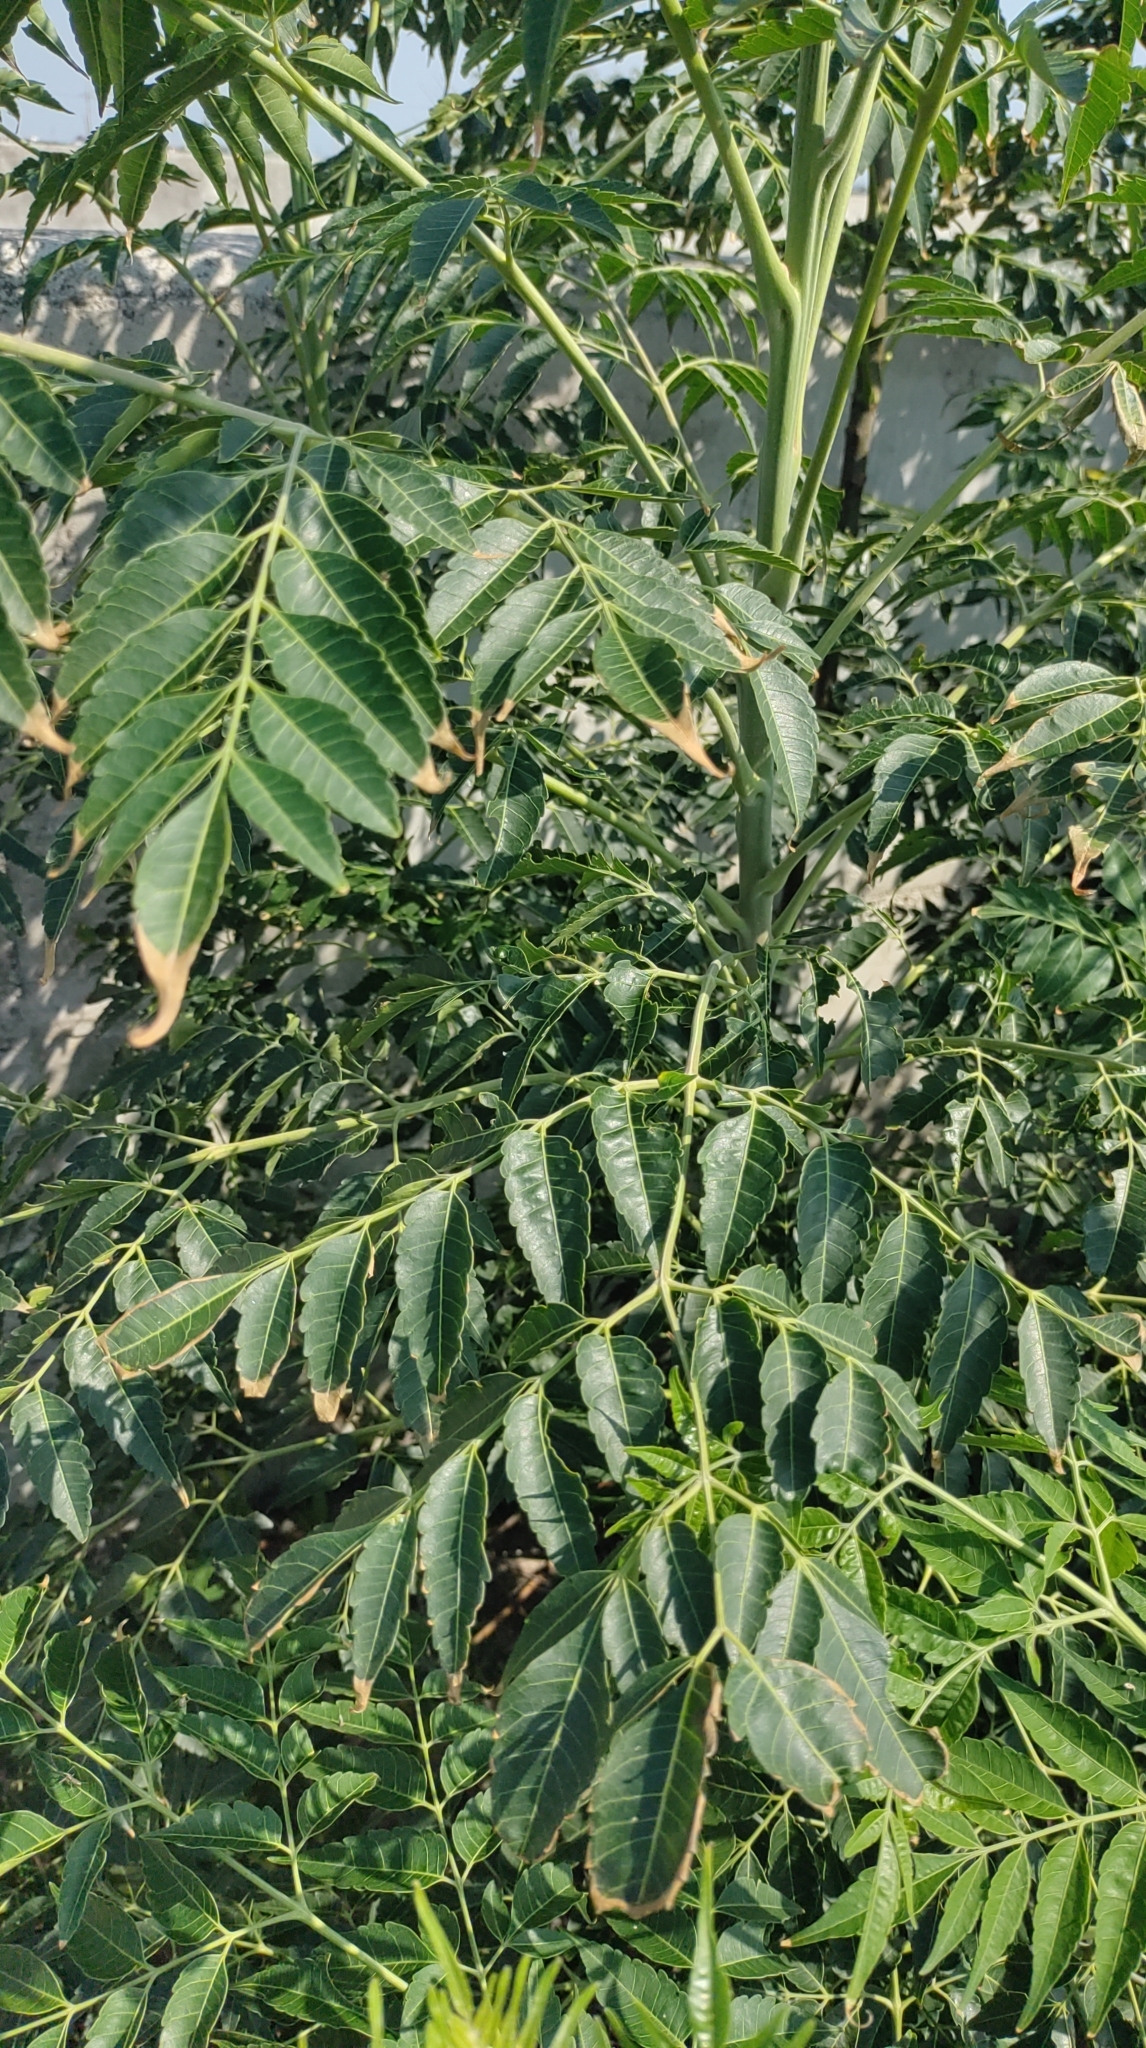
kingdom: Plantae
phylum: Tracheophyta
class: Magnoliopsida
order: Sapindales
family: Meliaceae
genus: Melia
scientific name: Melia azedarach
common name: Chinaberrytree
